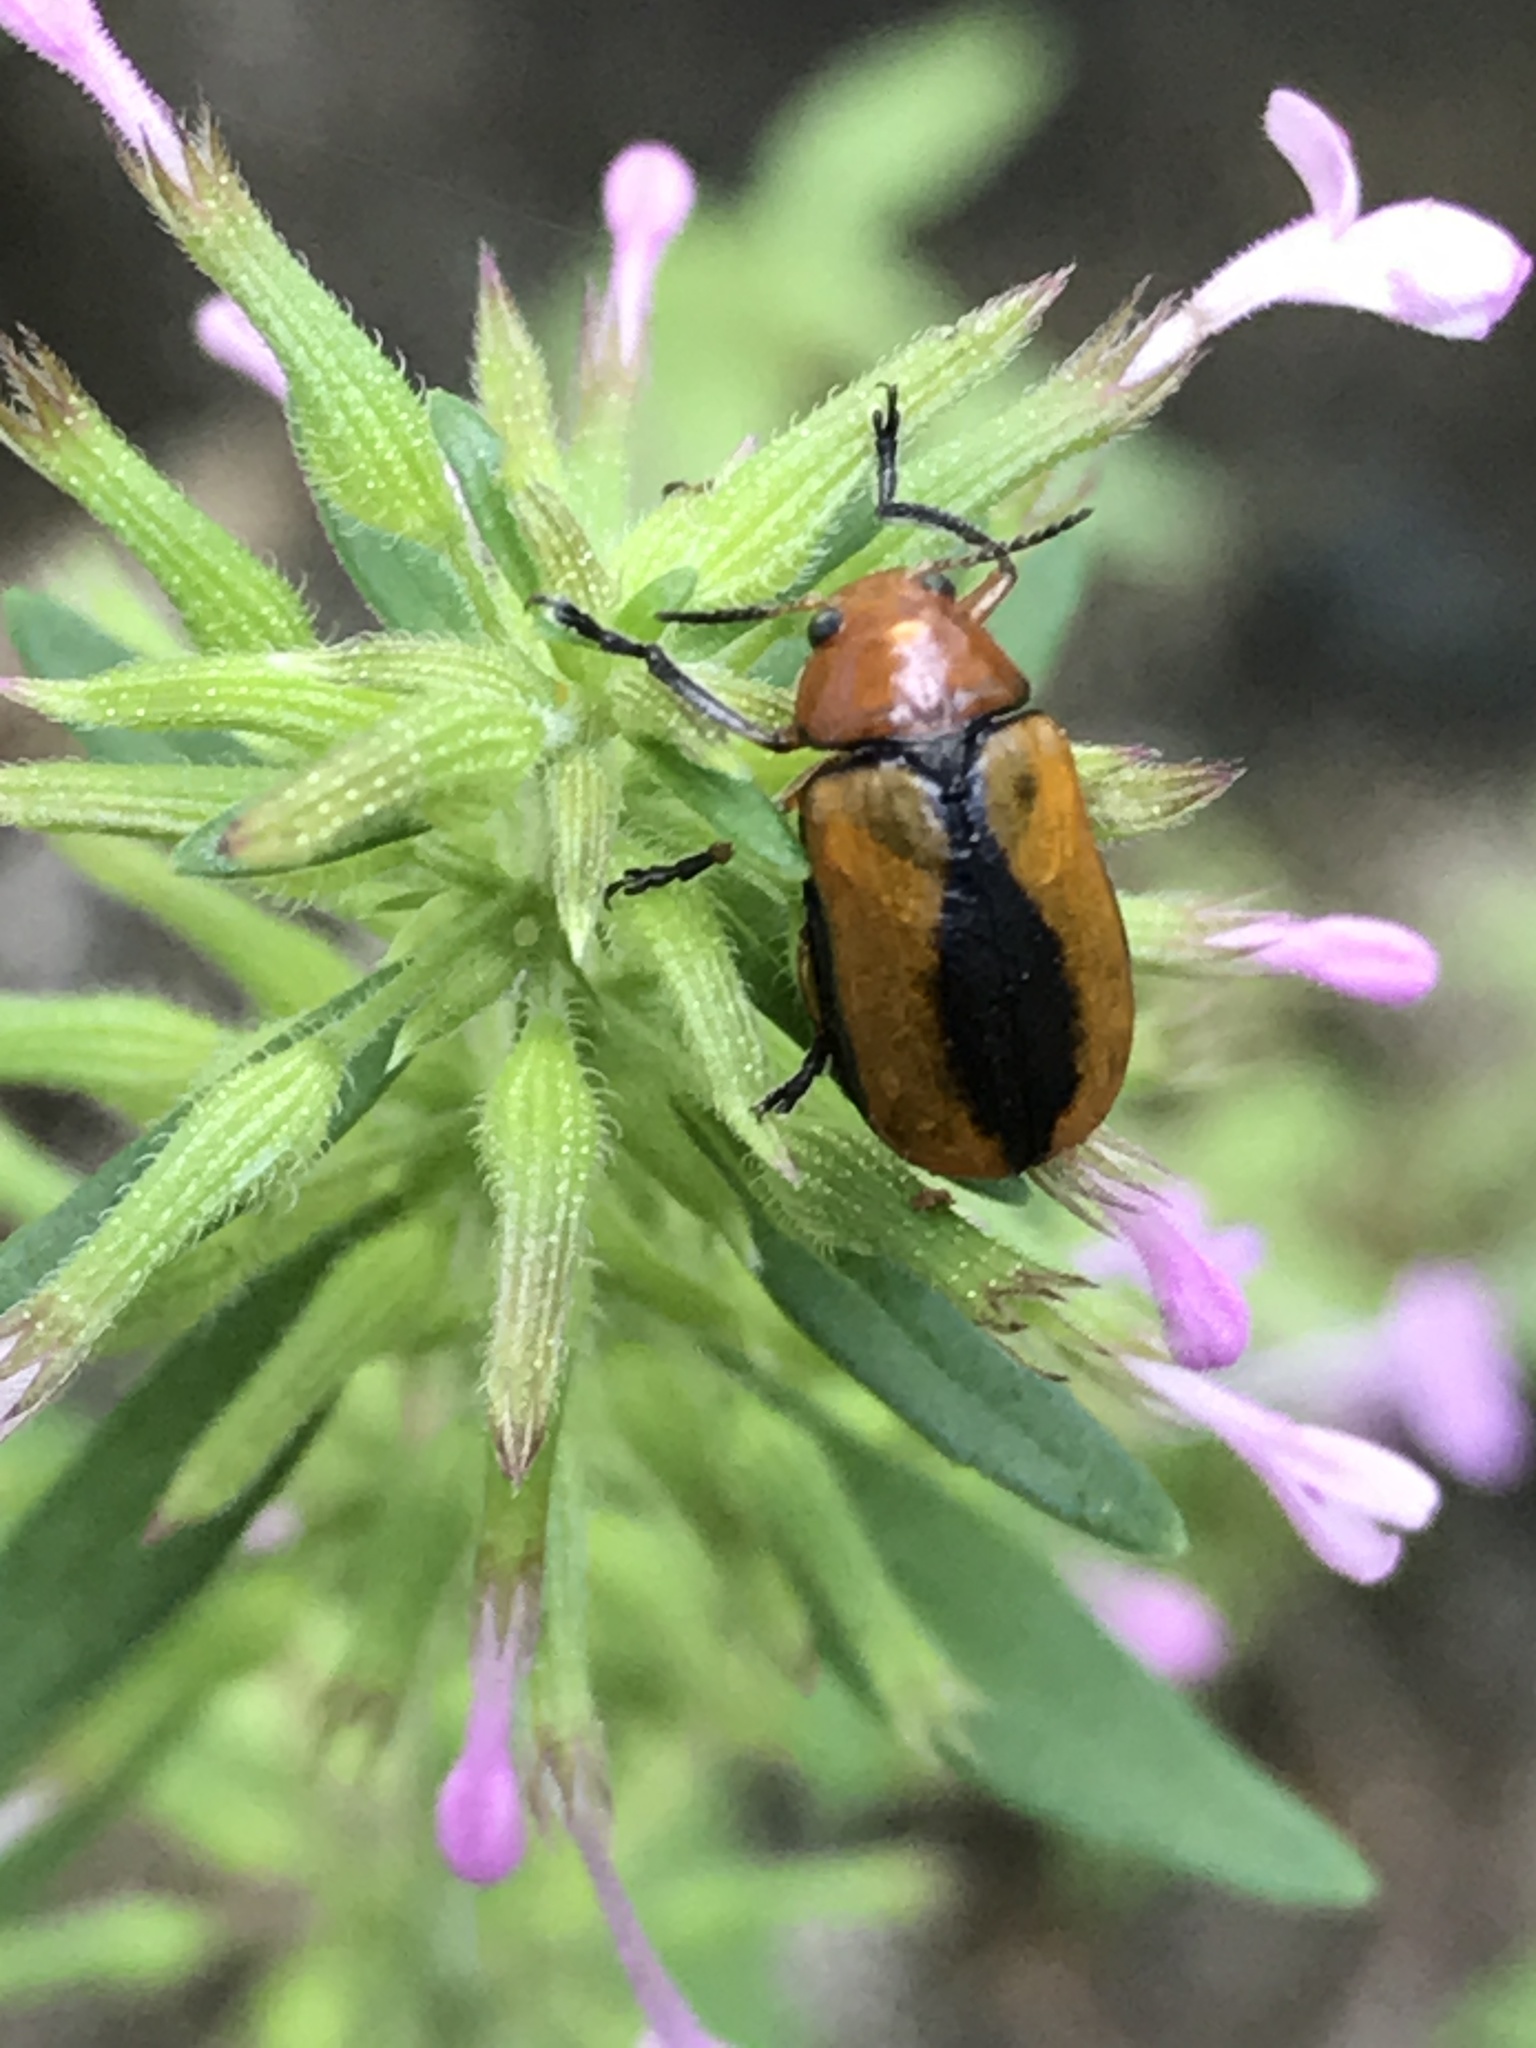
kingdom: Animalia
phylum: Arthropoda
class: Insecta
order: Coleoptera
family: Chrysomelidae
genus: Anomoea
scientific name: Anomoea laticlavia
